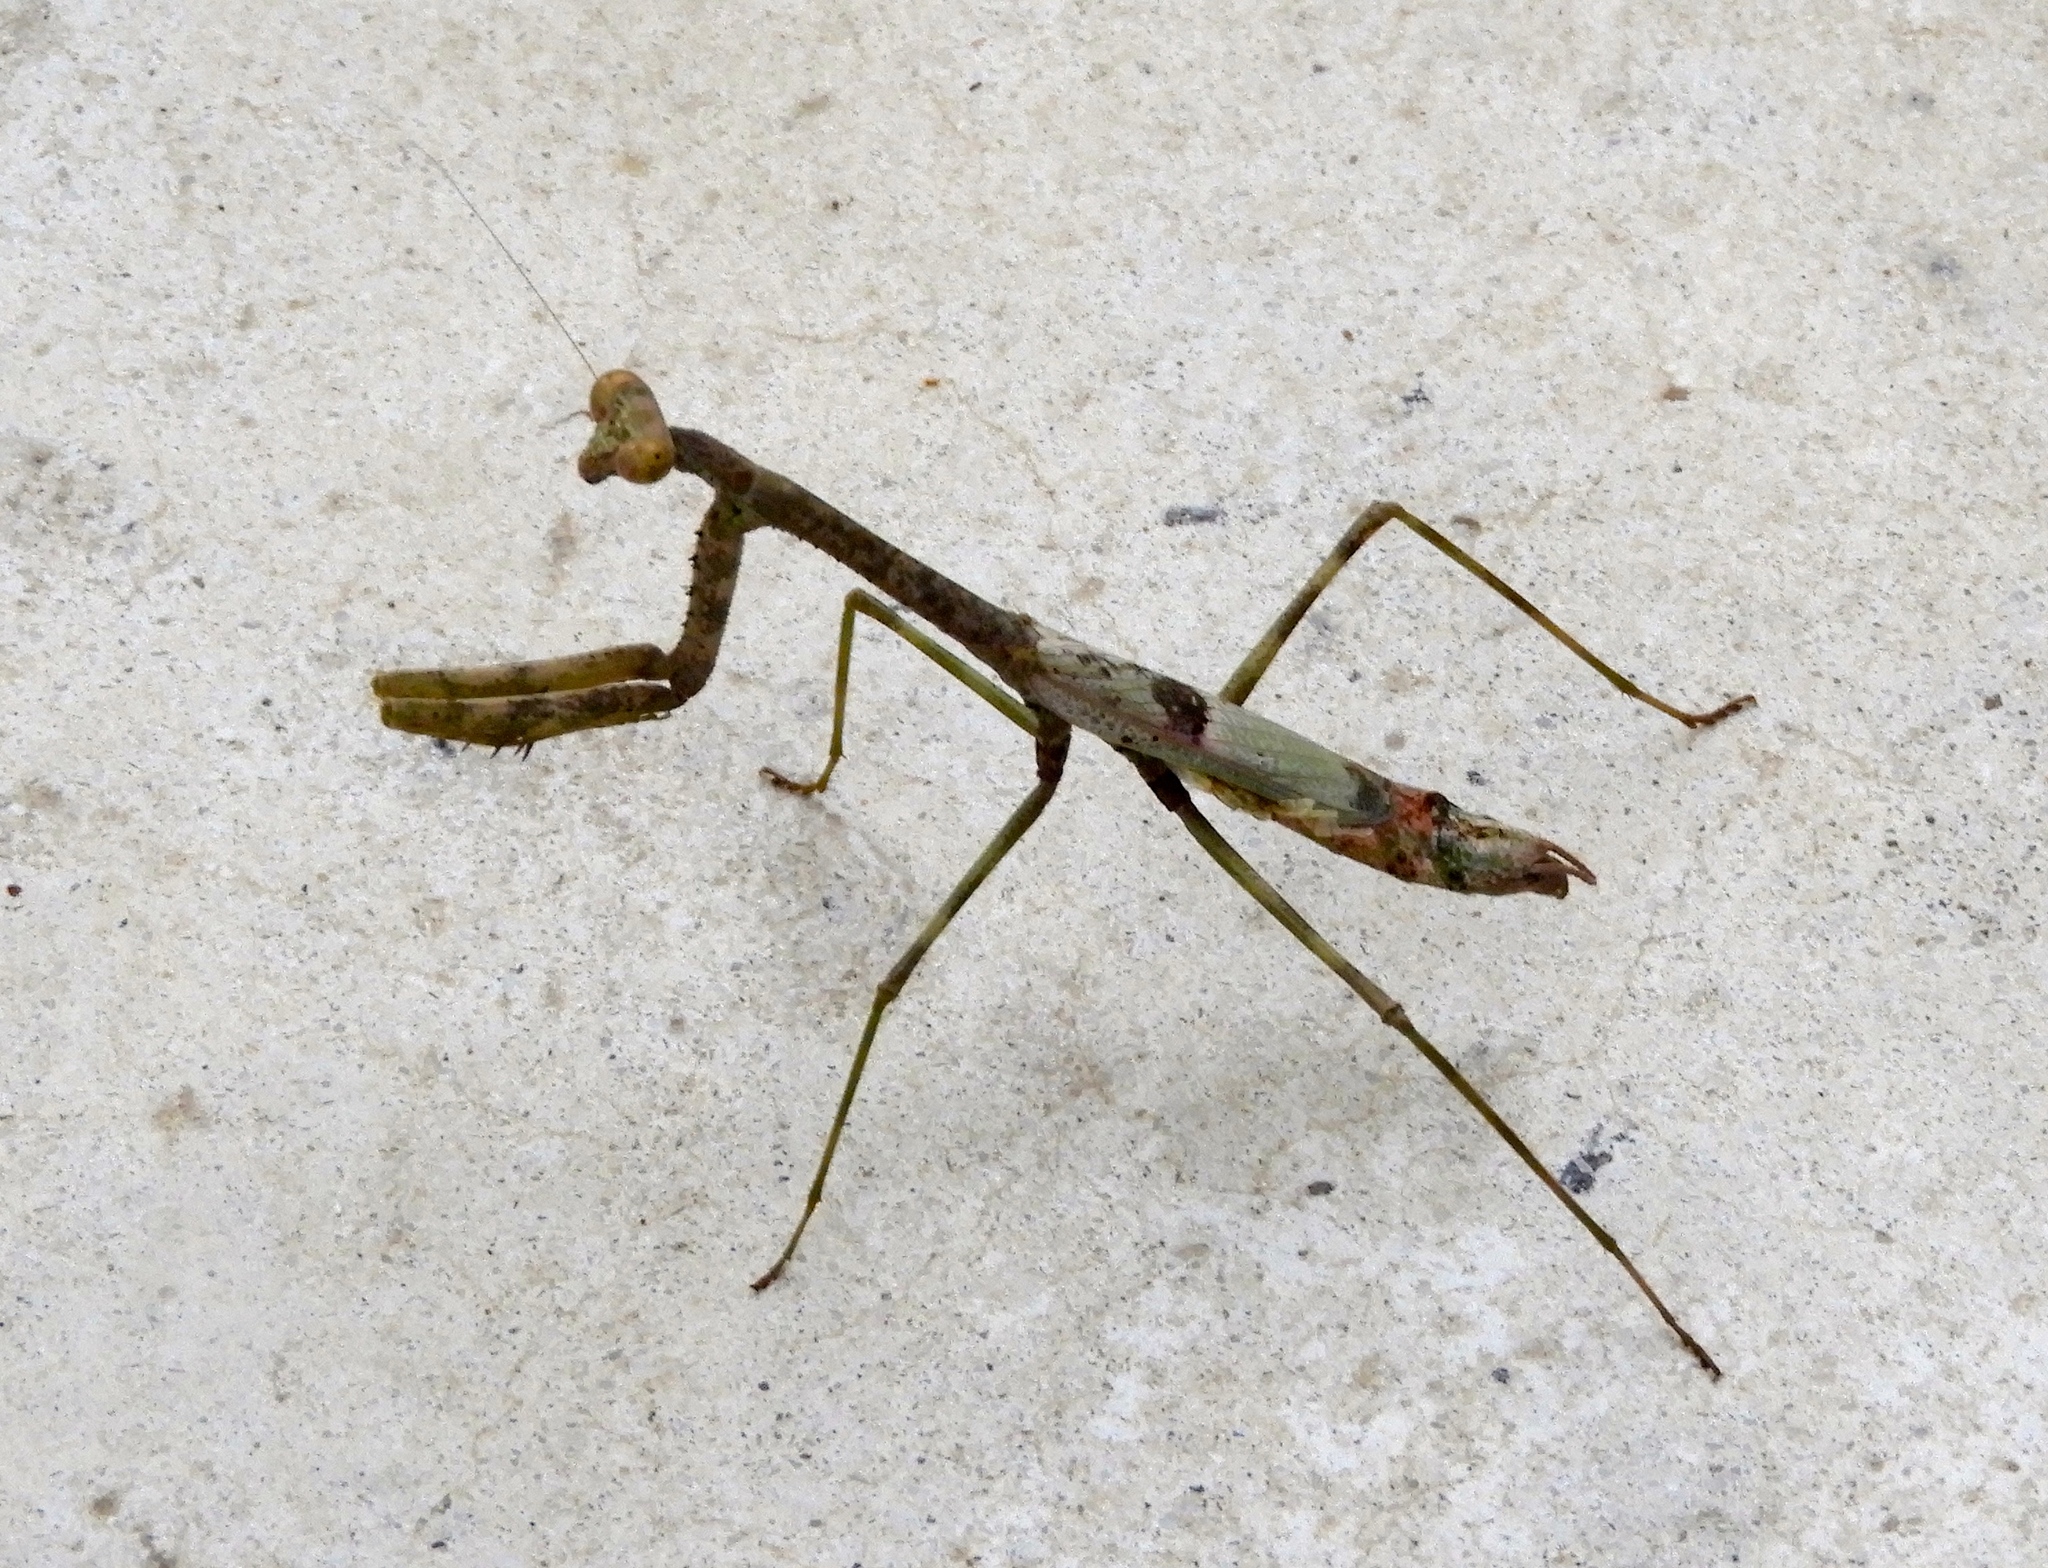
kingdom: Animalia
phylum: Arthropoda
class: Insecta
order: Mantodea
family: Mantidae
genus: Stagmomantis
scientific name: Stagmomantis
